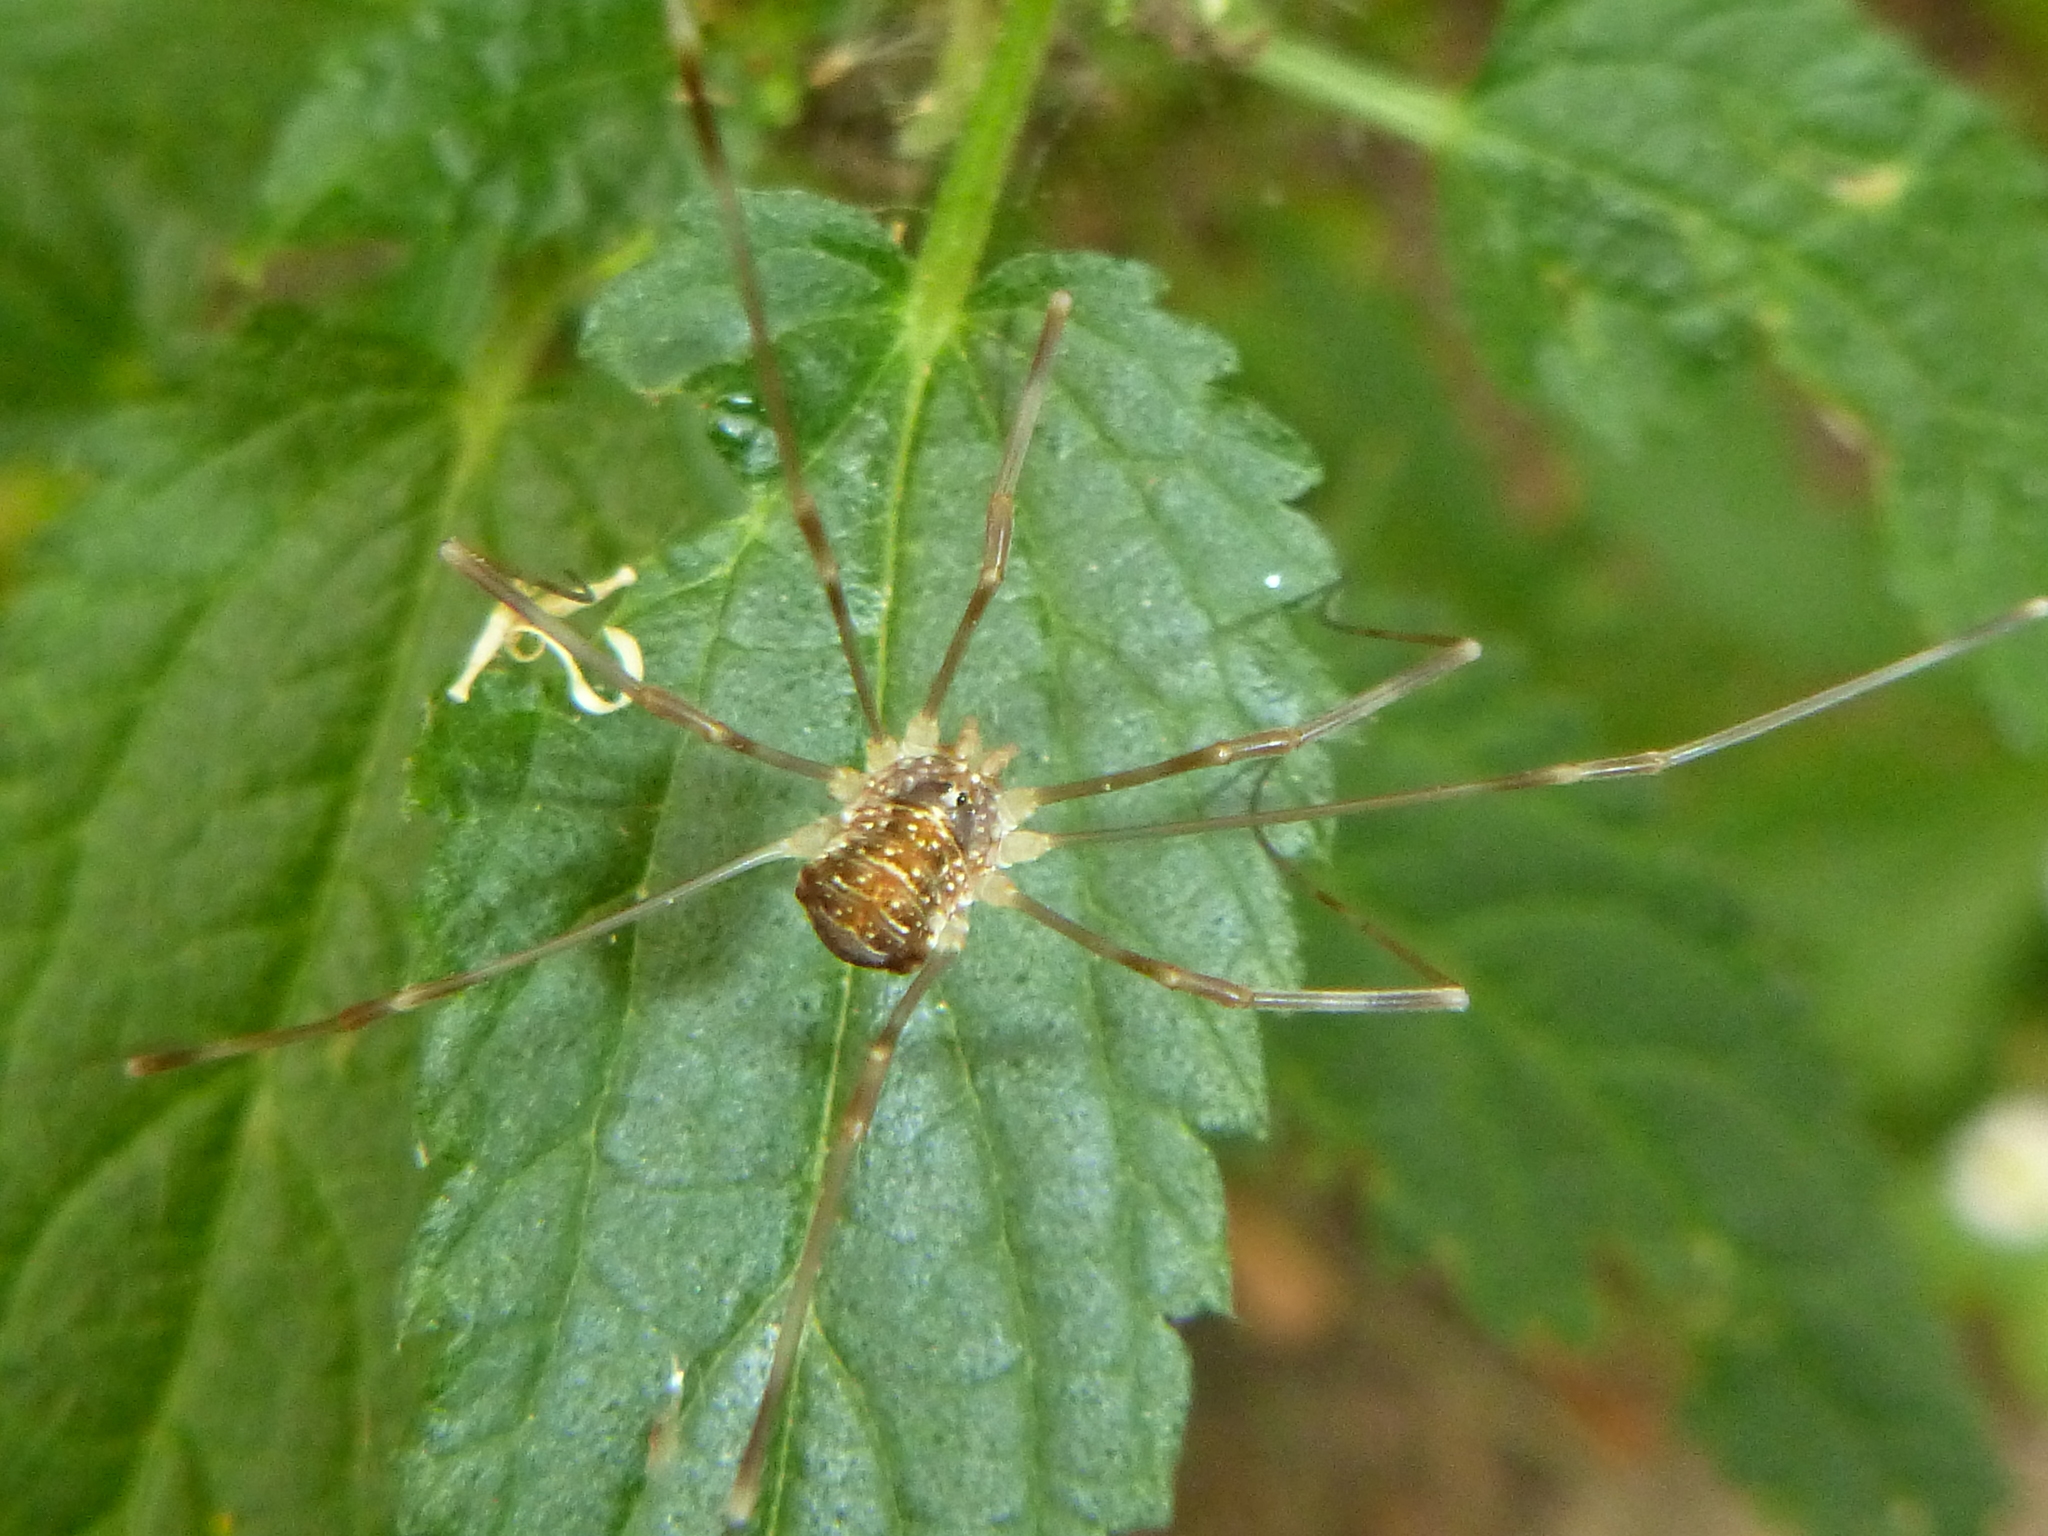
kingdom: Animalia
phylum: Arthropoda
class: Arachnida
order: Opiliones
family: Phalangiidae
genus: Opilio
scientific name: Opilio canestrinii
